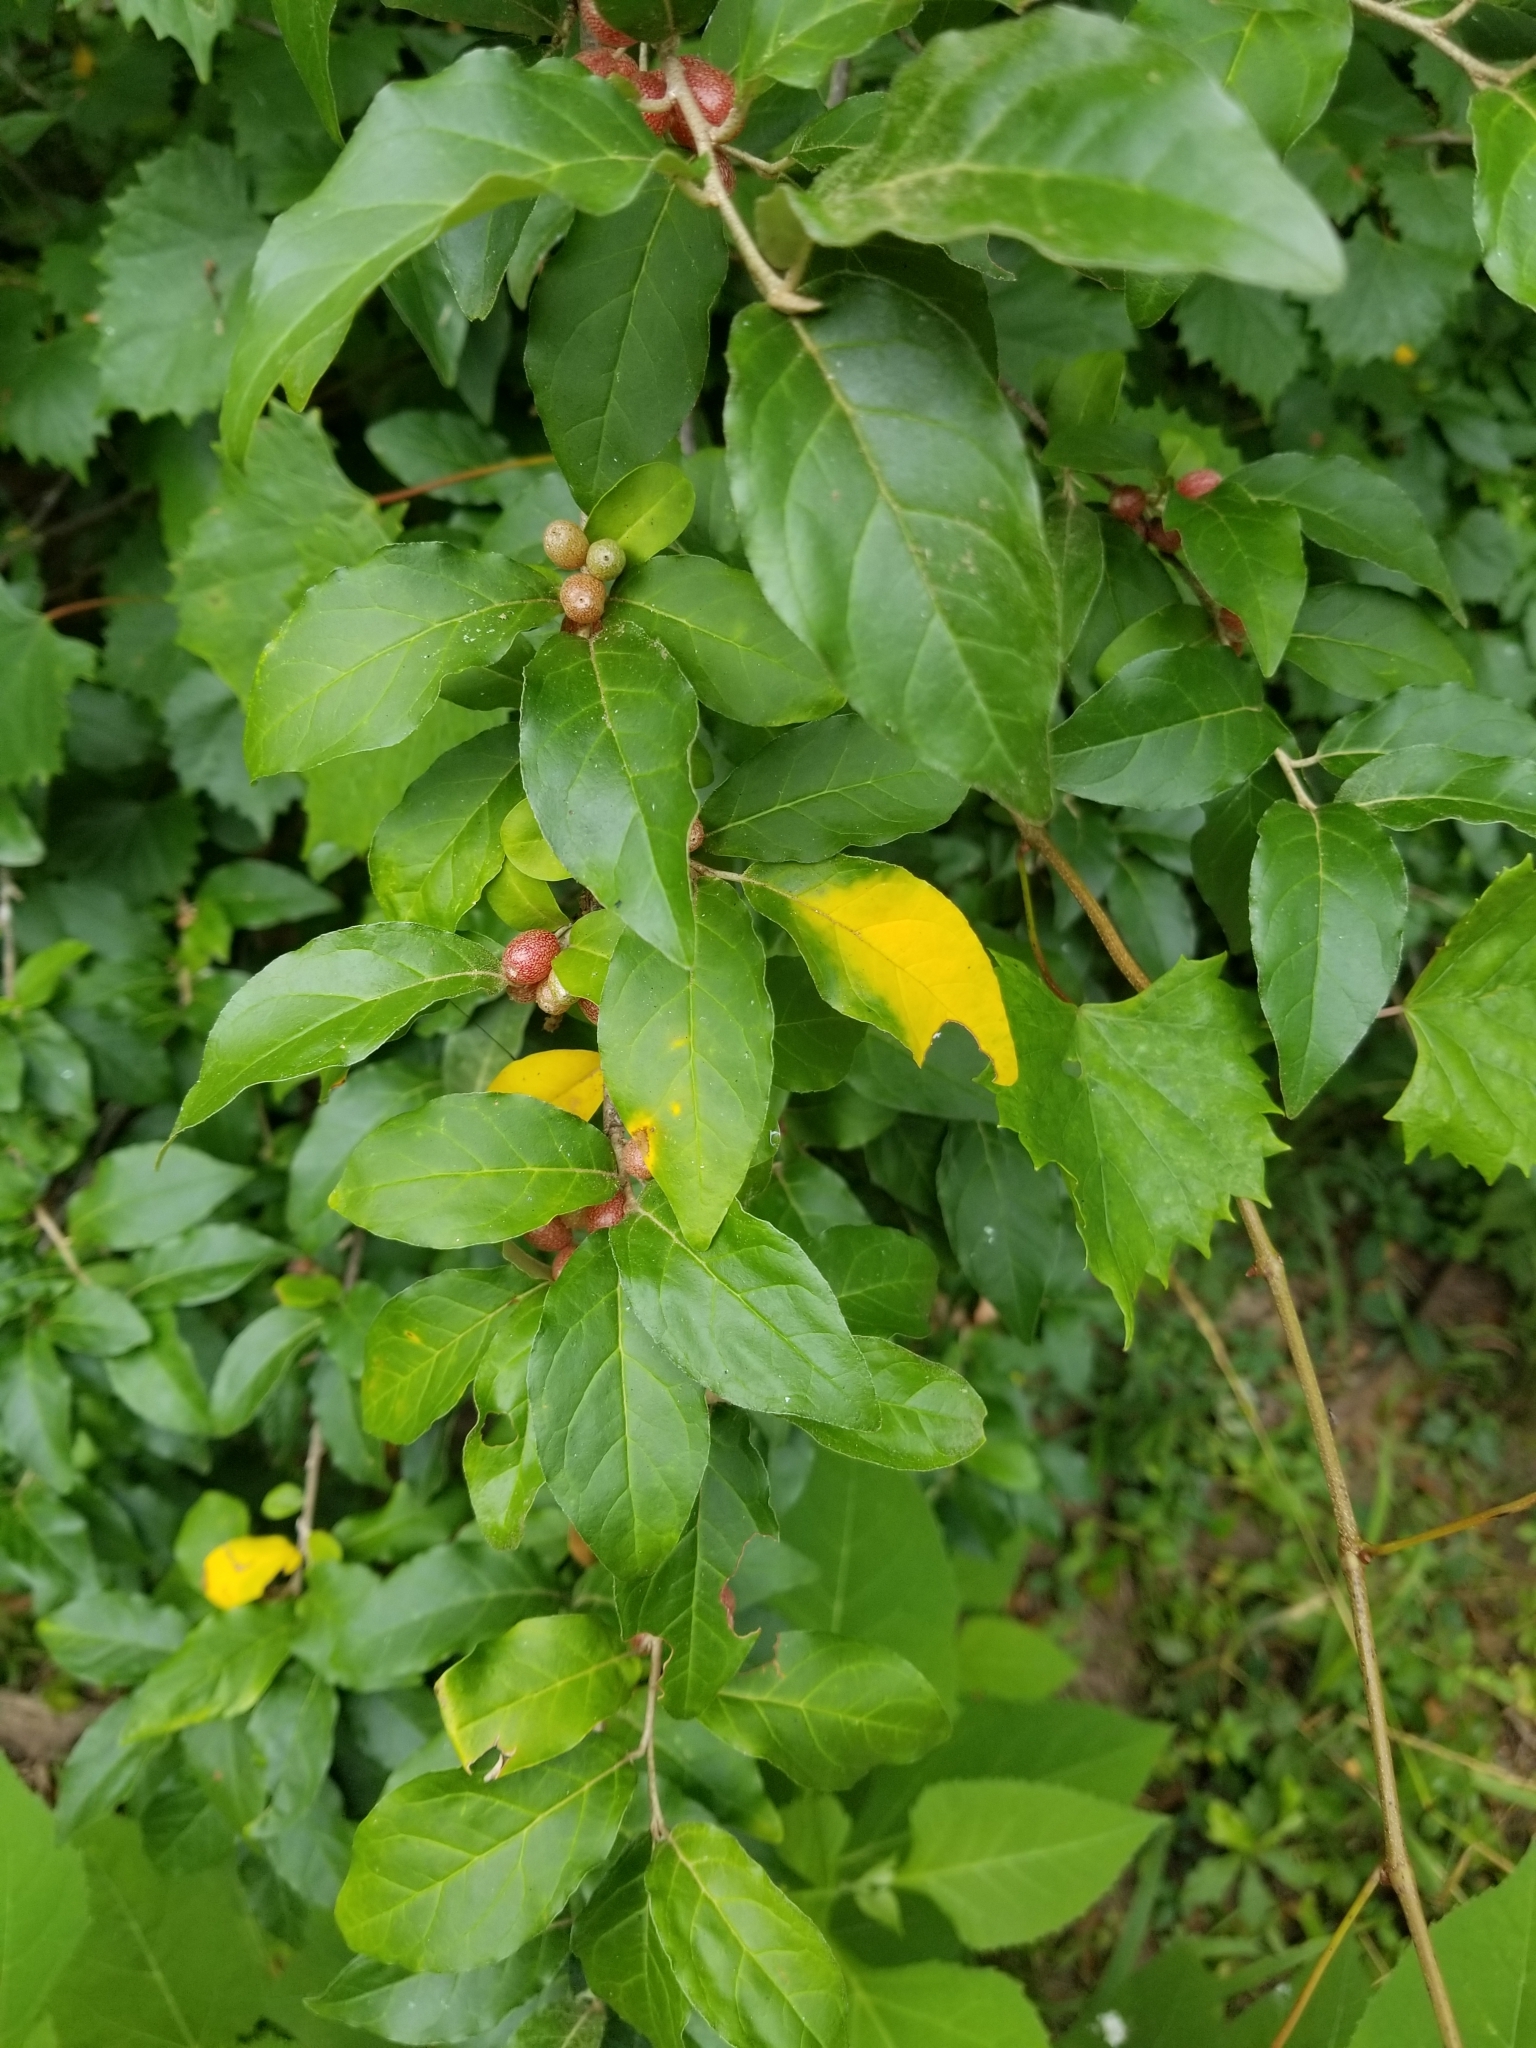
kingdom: Plantae
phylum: Tracheophyta
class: Magnoliopsida
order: Rosales
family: Elaeagnaceae
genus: Elaeagnus
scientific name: Elaeagnus umbellata
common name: Autumn olive
